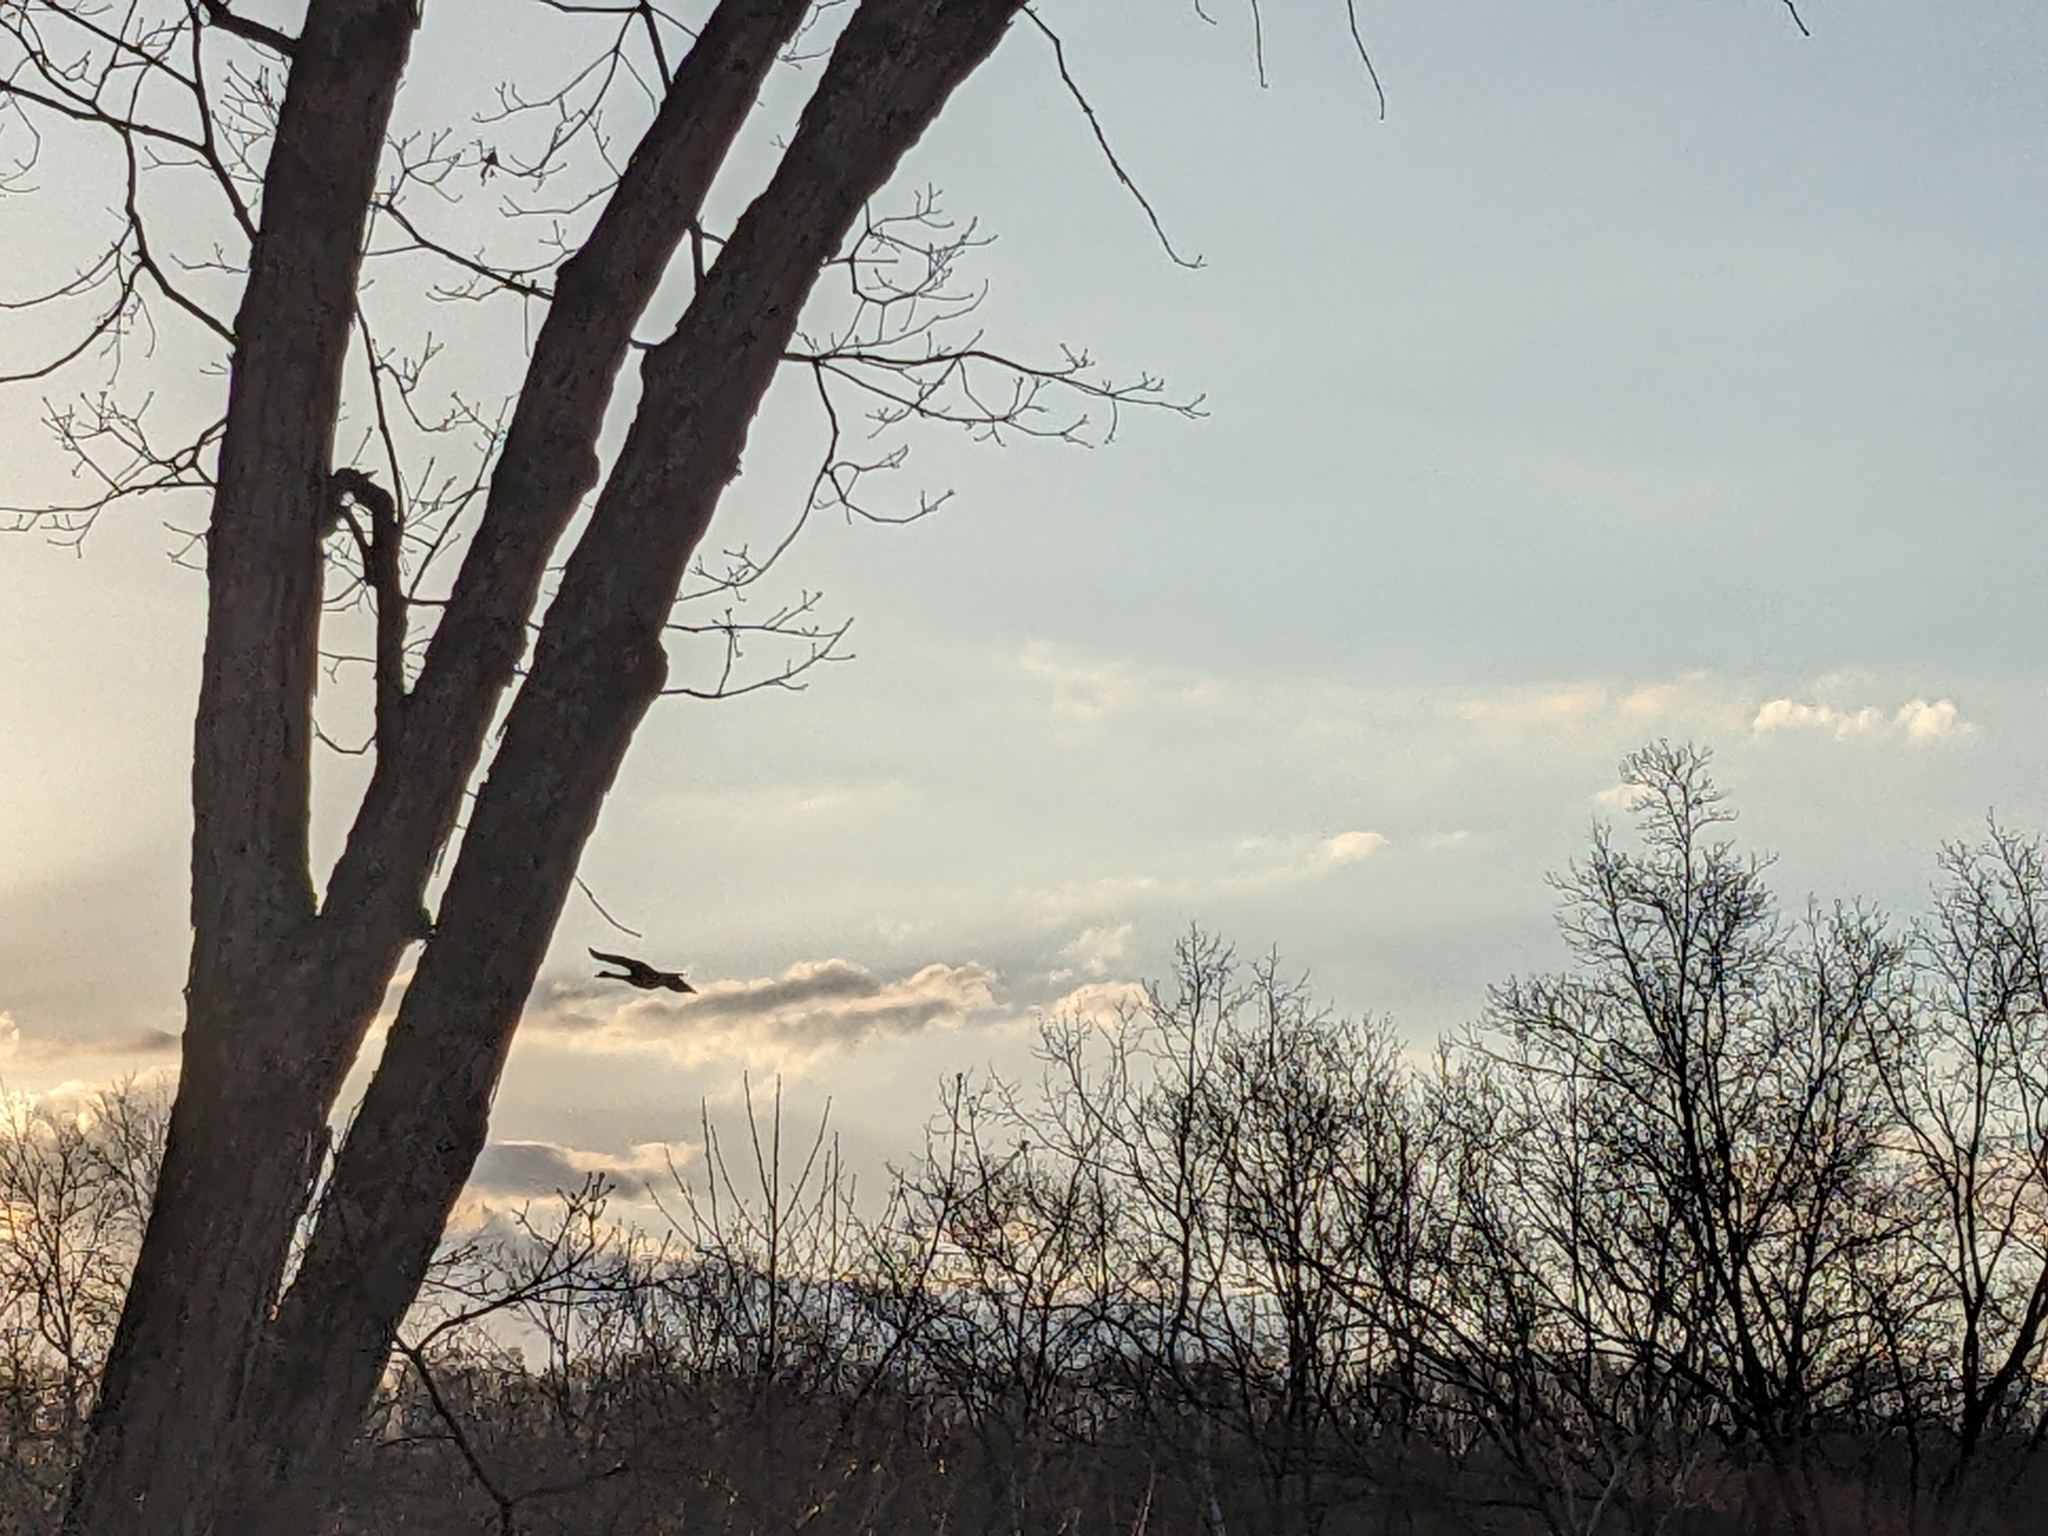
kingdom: Animalia
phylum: Chordata
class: Aves
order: Anseriformes
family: Anatidae
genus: Branta
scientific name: Branta canadensis
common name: Canada goose
